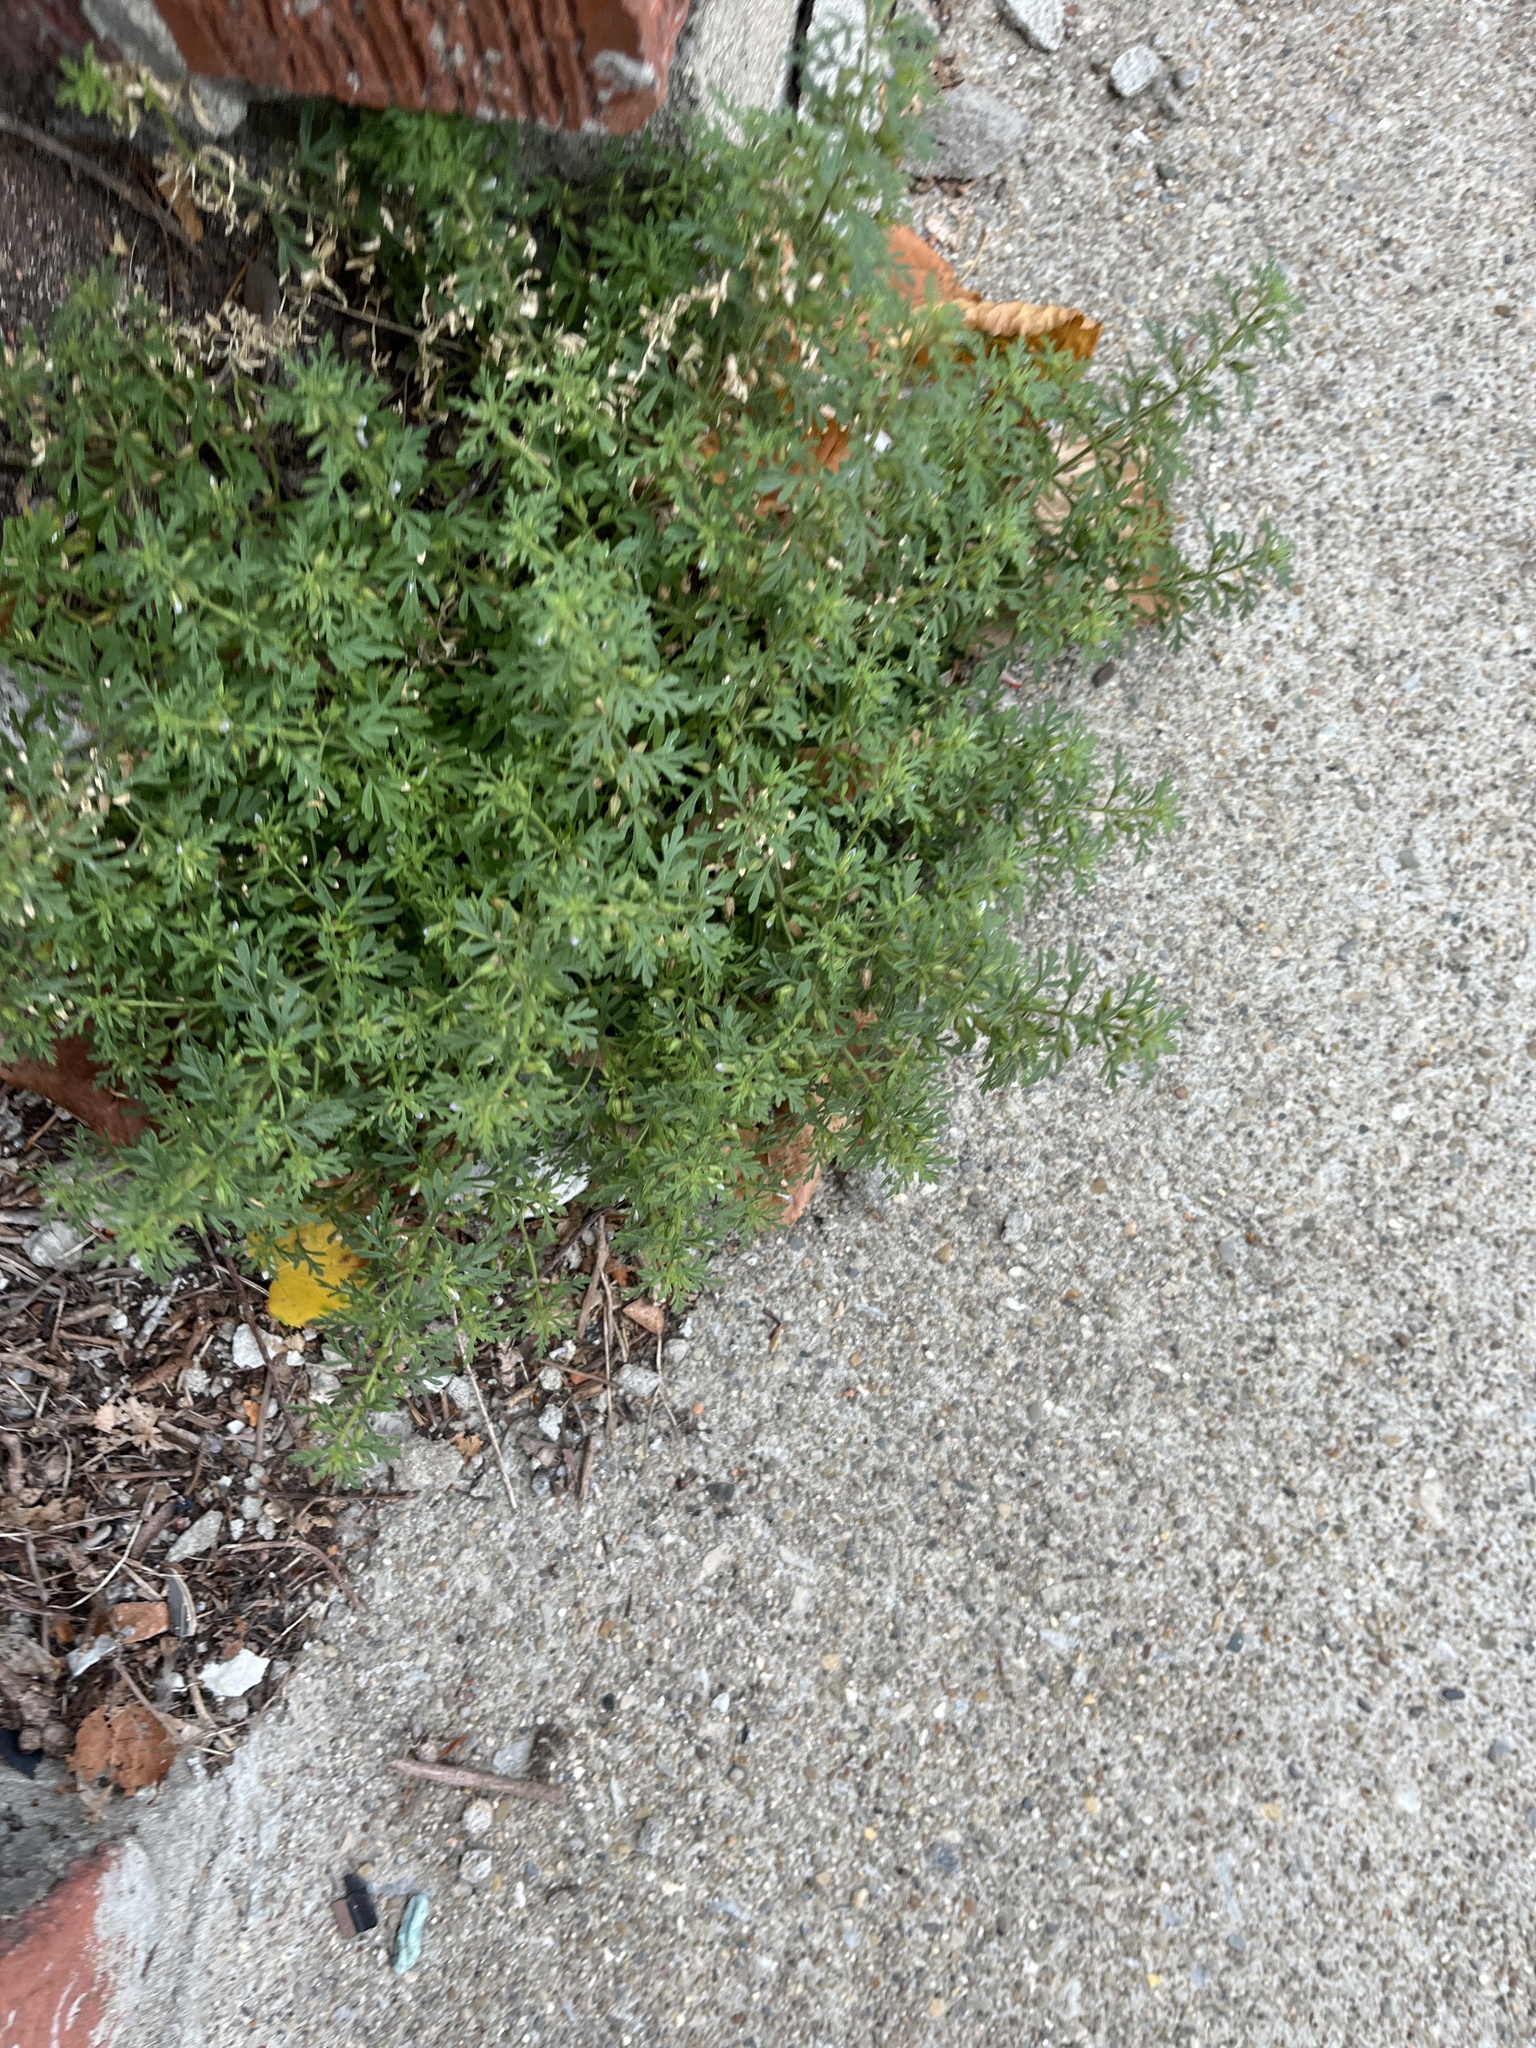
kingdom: Plantae
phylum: Tracheophyta
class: Magnoliopsida
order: Lamiales
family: Plantaginaceae
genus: Leucospora
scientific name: Leucospora multifida
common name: Narrow-leaf paleseed
